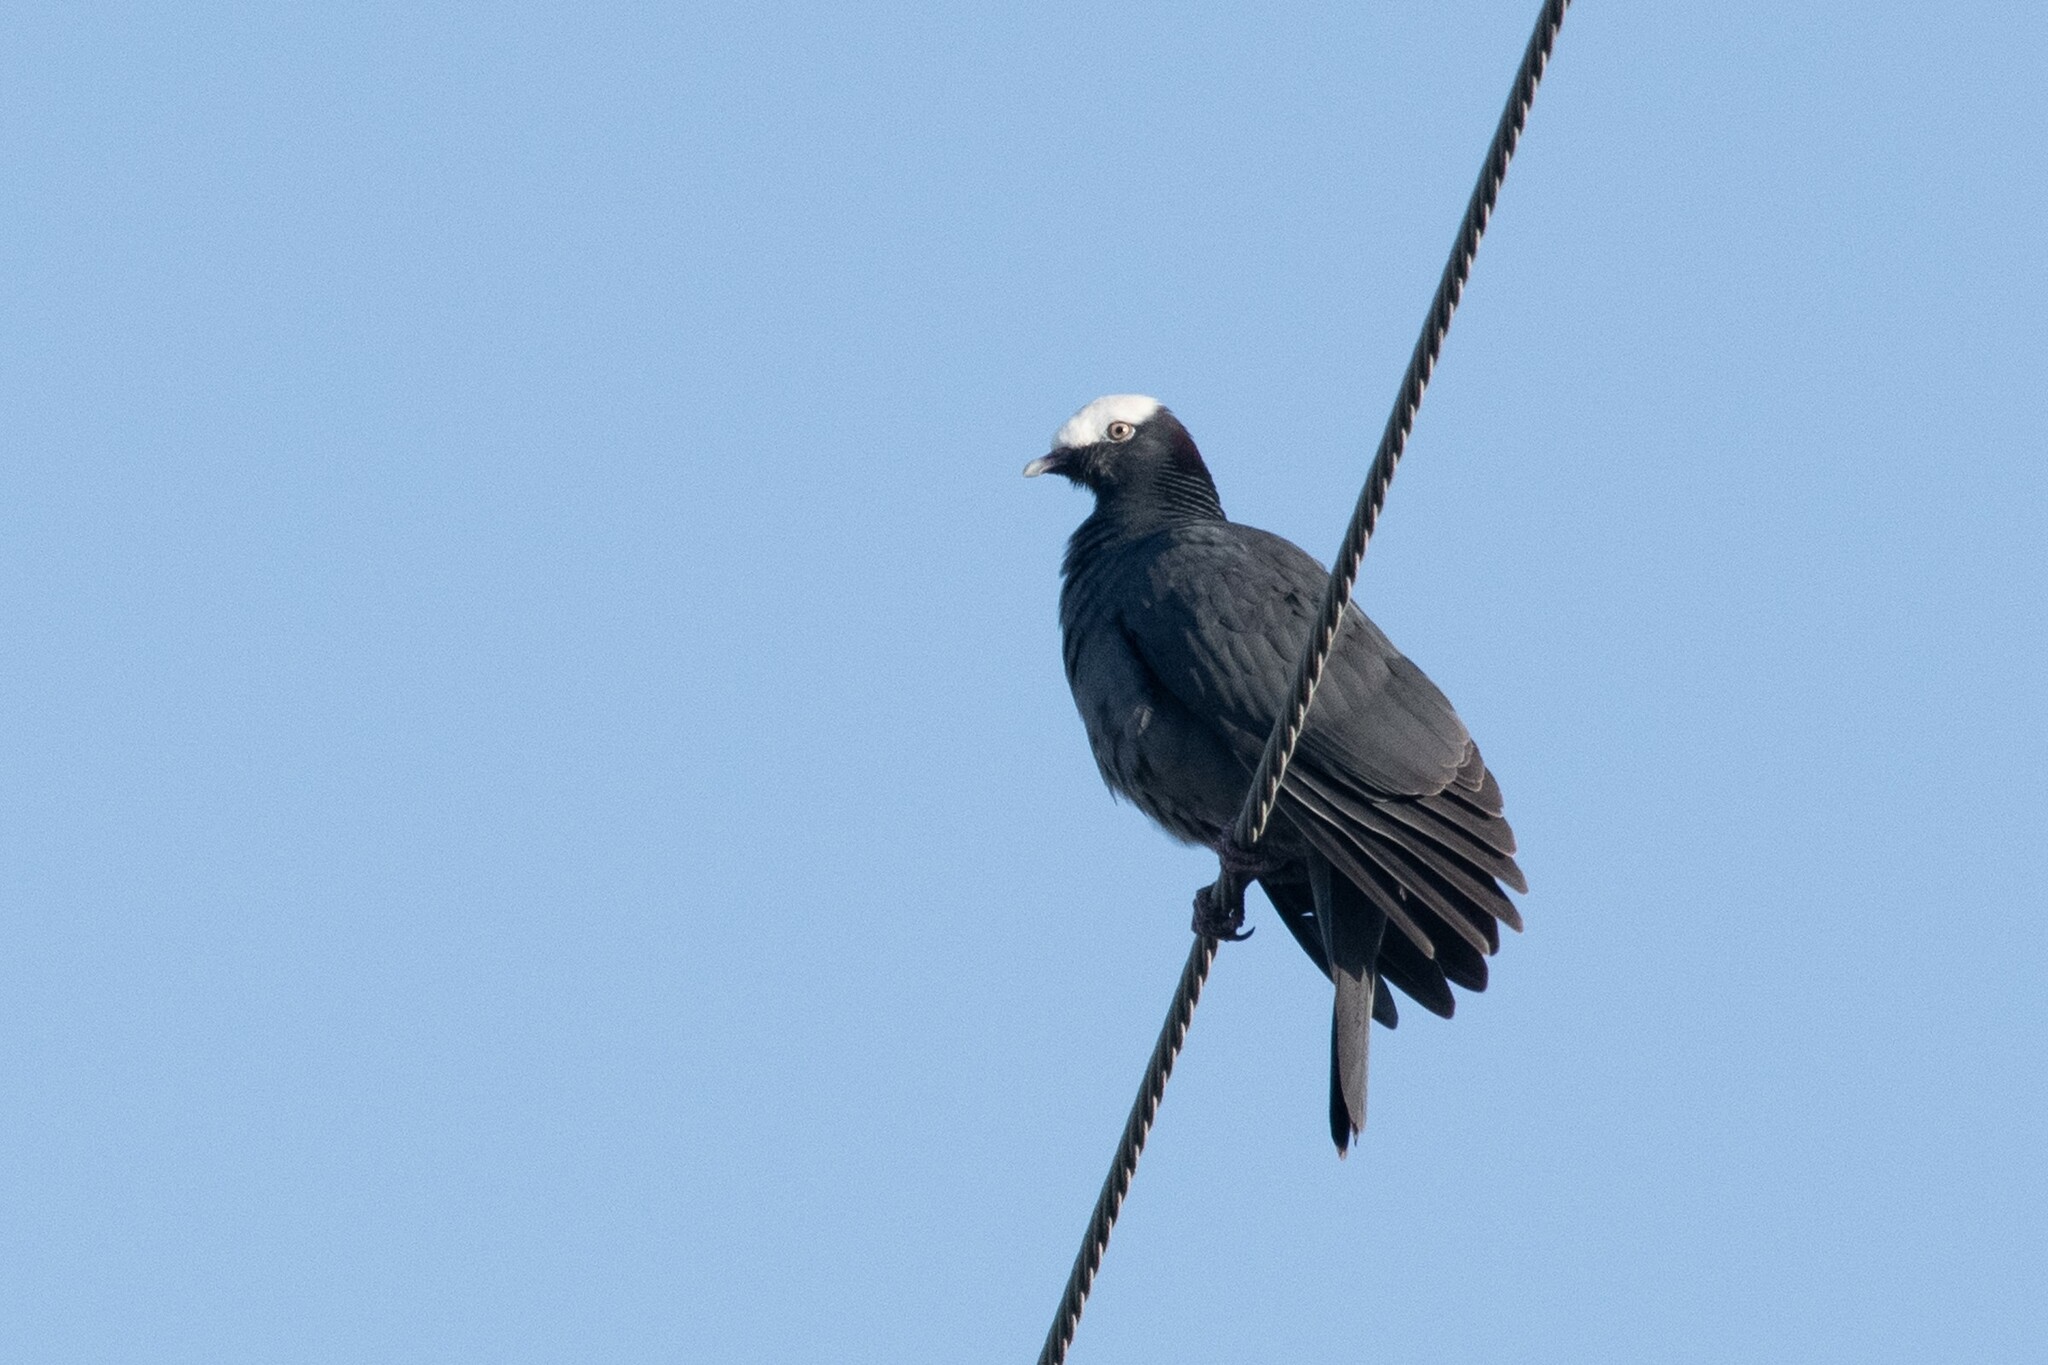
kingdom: Animalia
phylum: Chordata
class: Aves
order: Columbiformes
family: Columbidae
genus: Patagioenas
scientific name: Patagioenas leucocephala
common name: White-crowned pigeon
